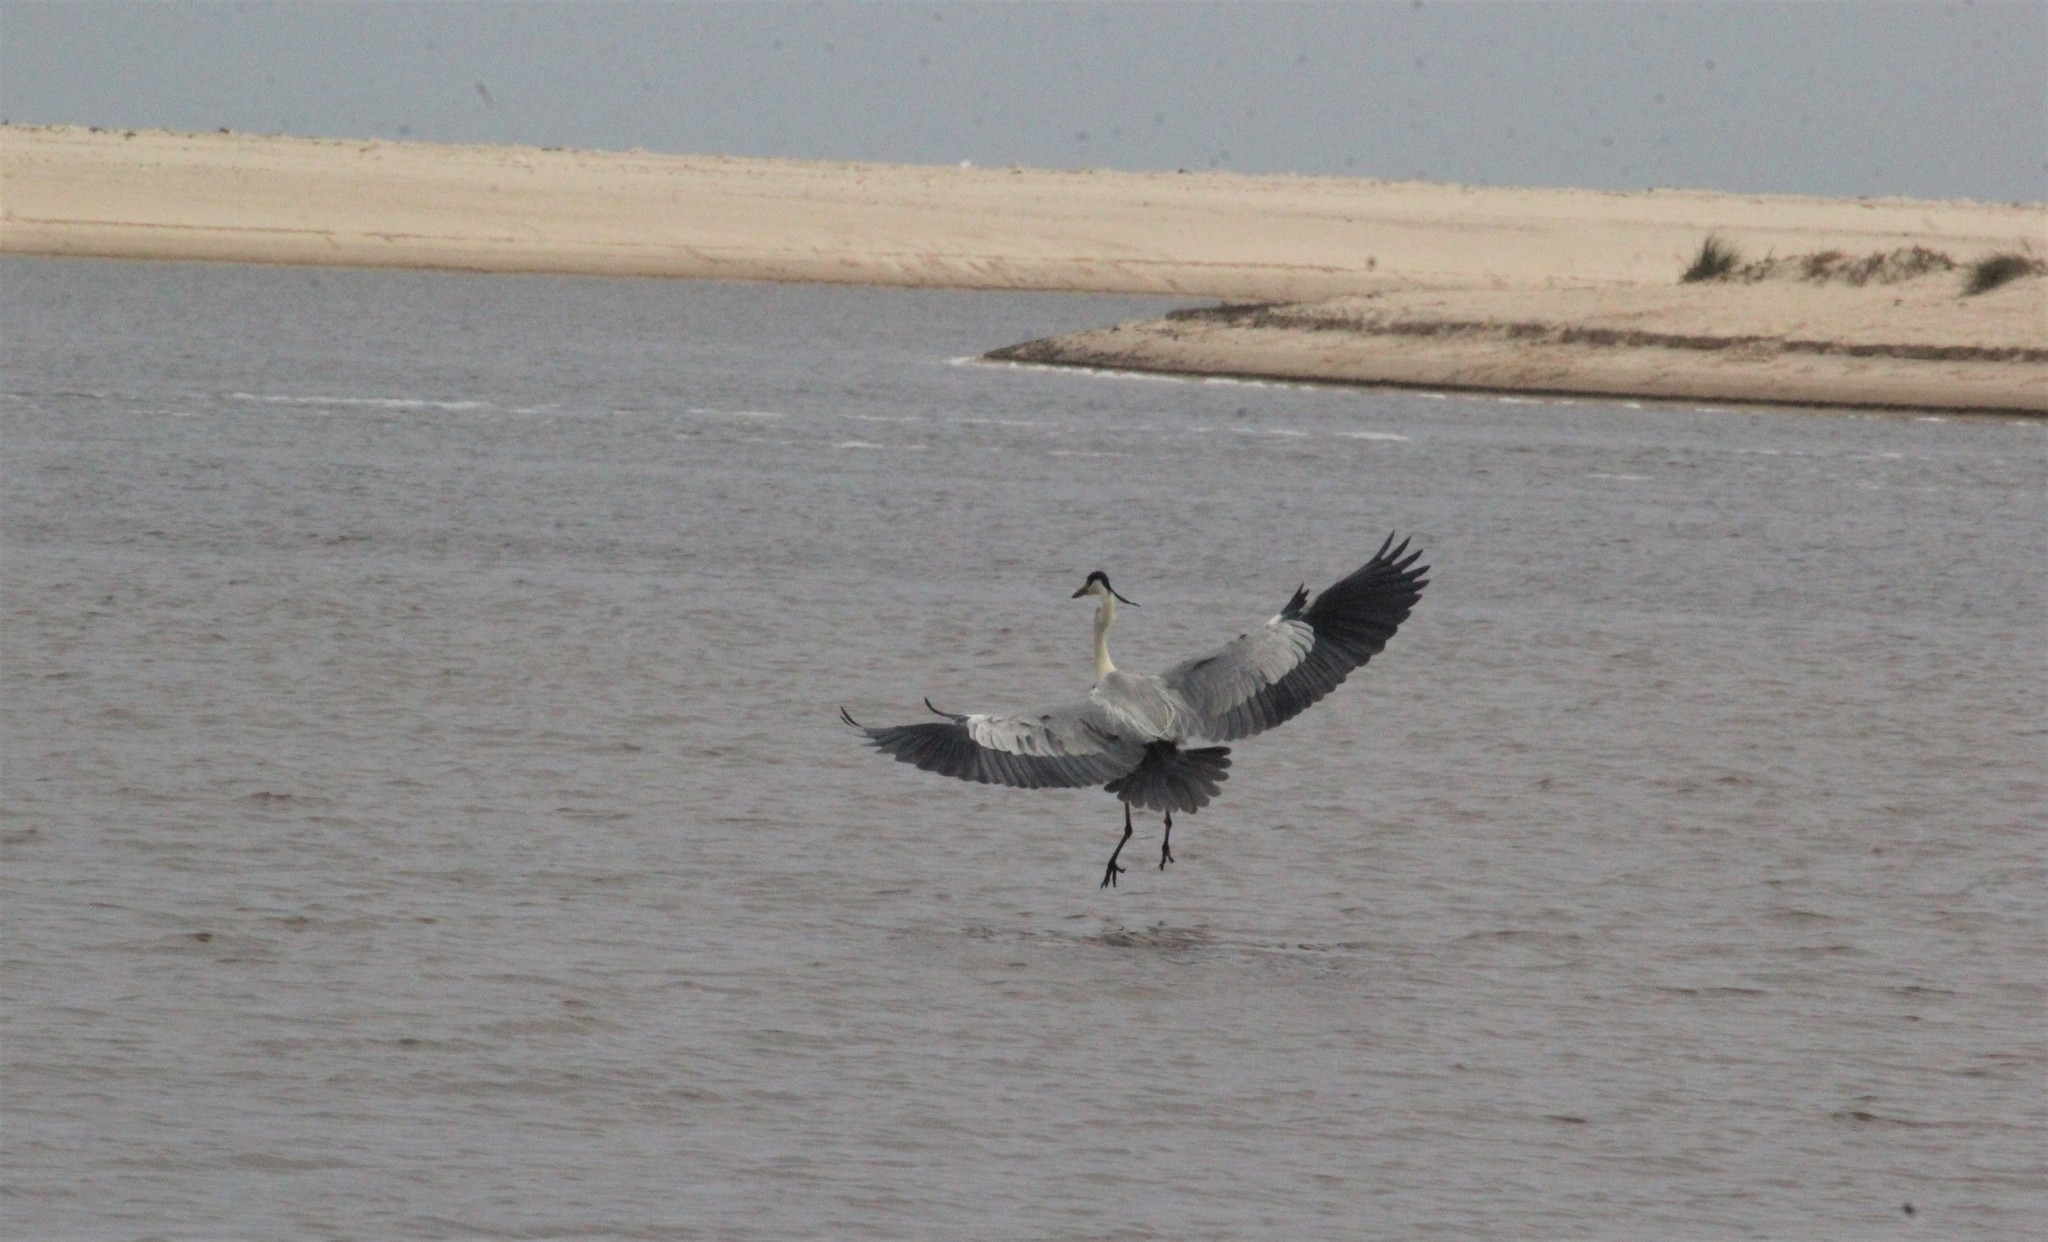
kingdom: Animalia
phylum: Chordata
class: Aves
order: Pelecaniformes
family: Ardeidae
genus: Ardea
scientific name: Ardea cocoi
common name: Cocoi heron
